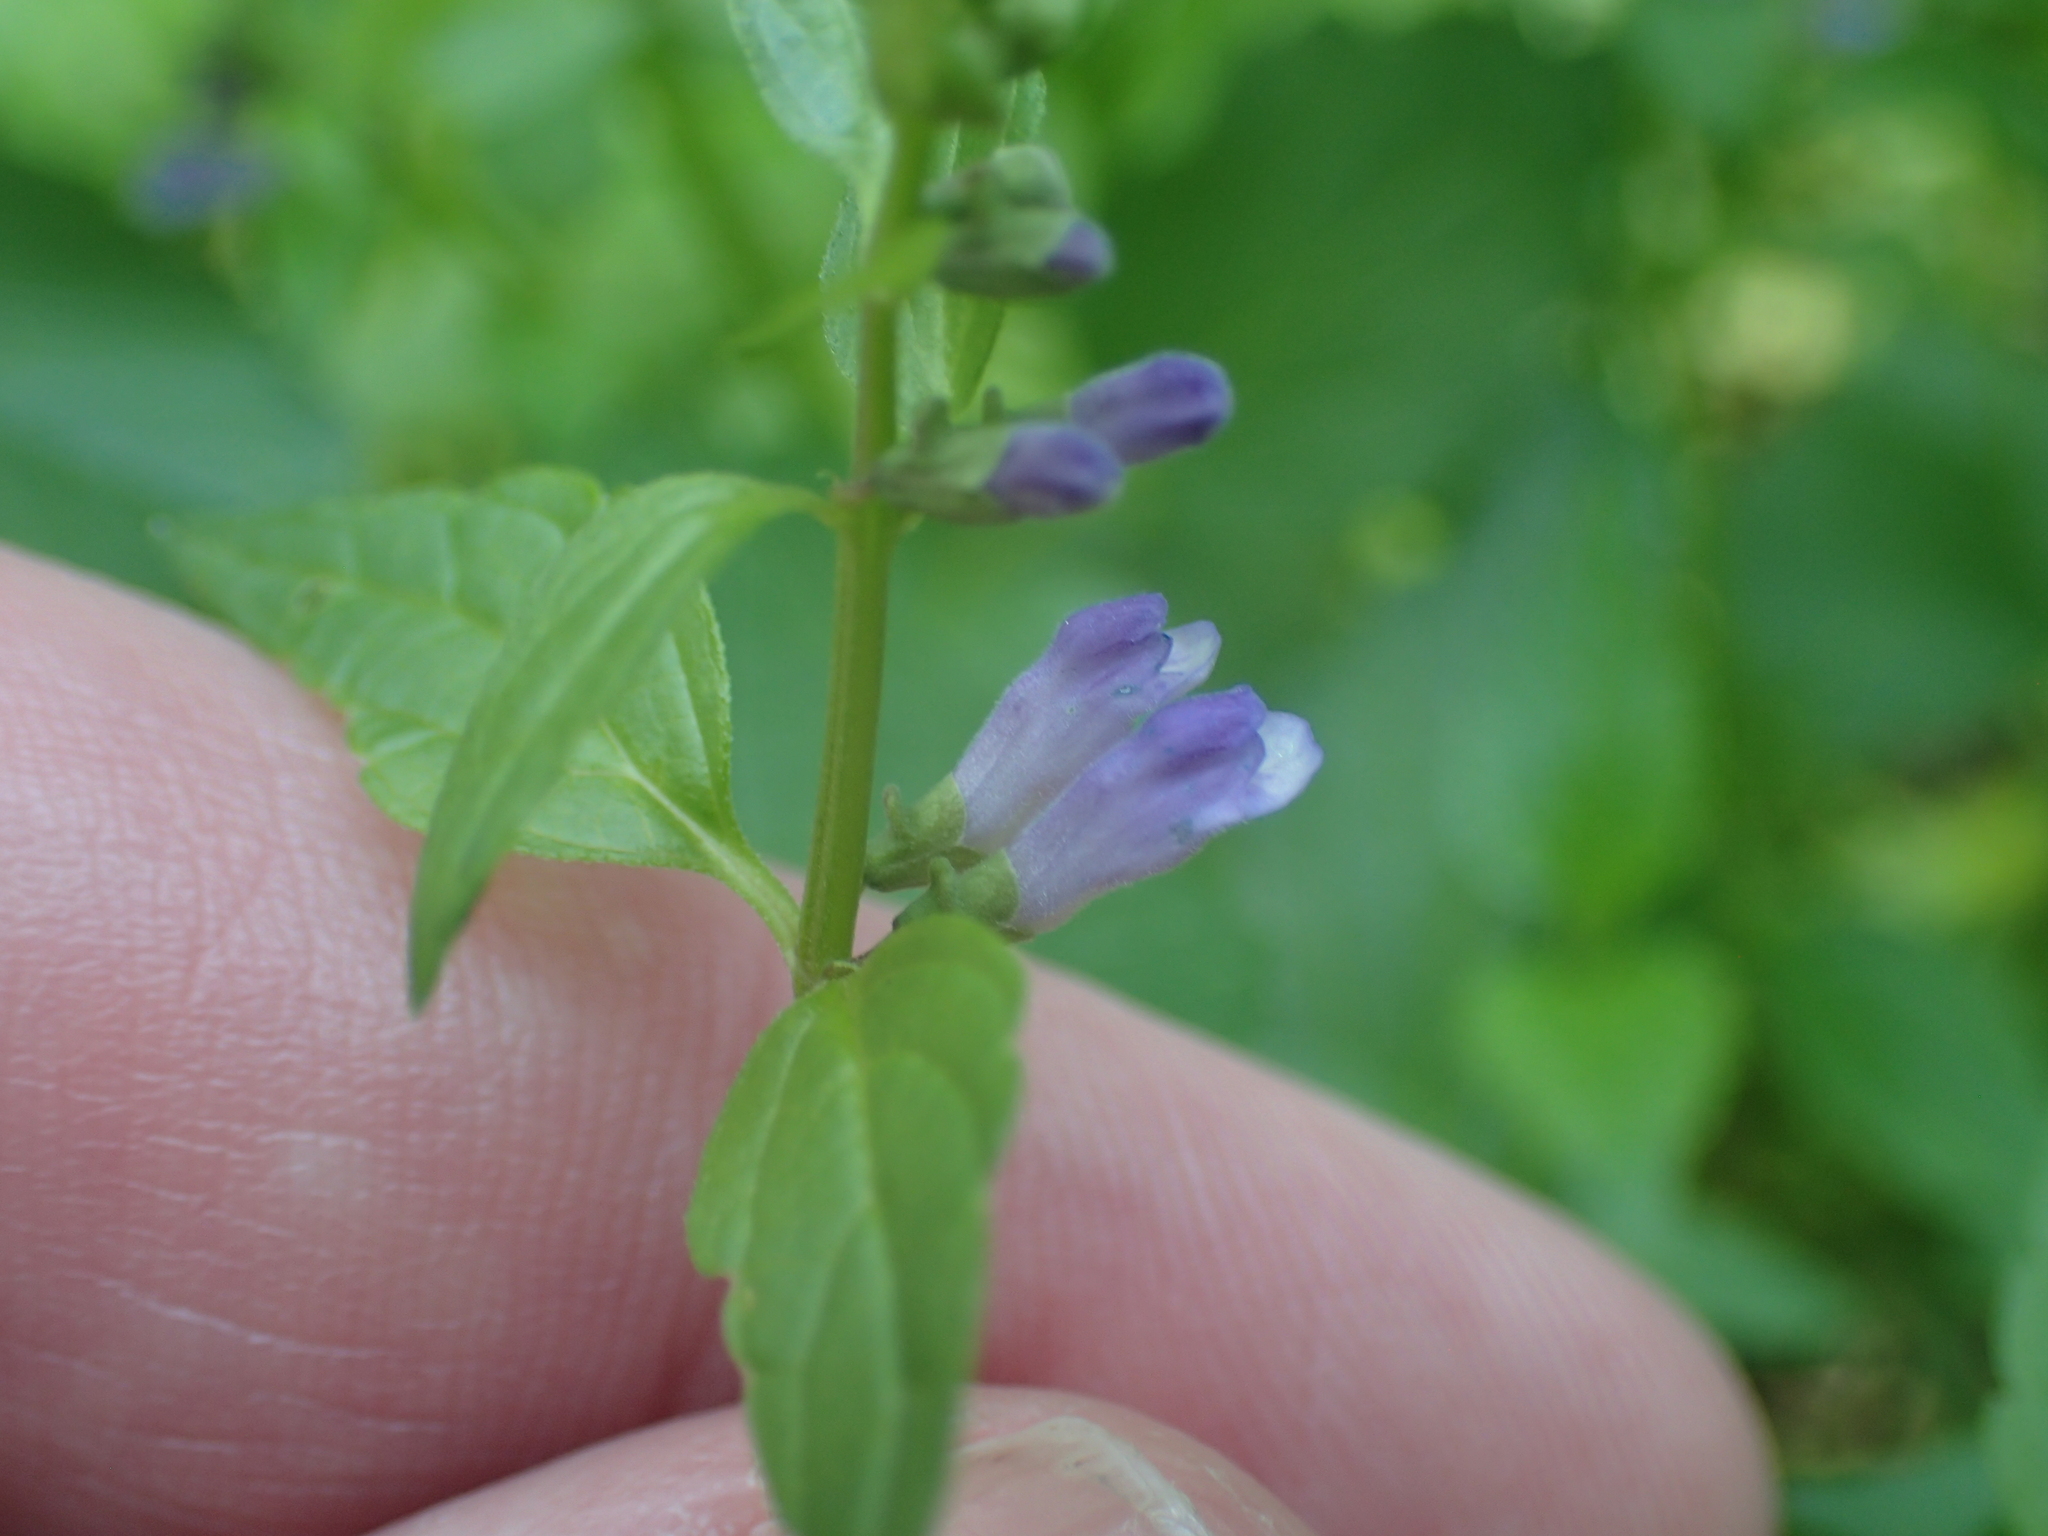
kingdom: Plantae
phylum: Tracheophyta
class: Magnoliopsida
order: Lamiales
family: Lamiaceae
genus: Scutellaria
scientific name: Scutellaria lateriflora
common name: Blue skullcap
